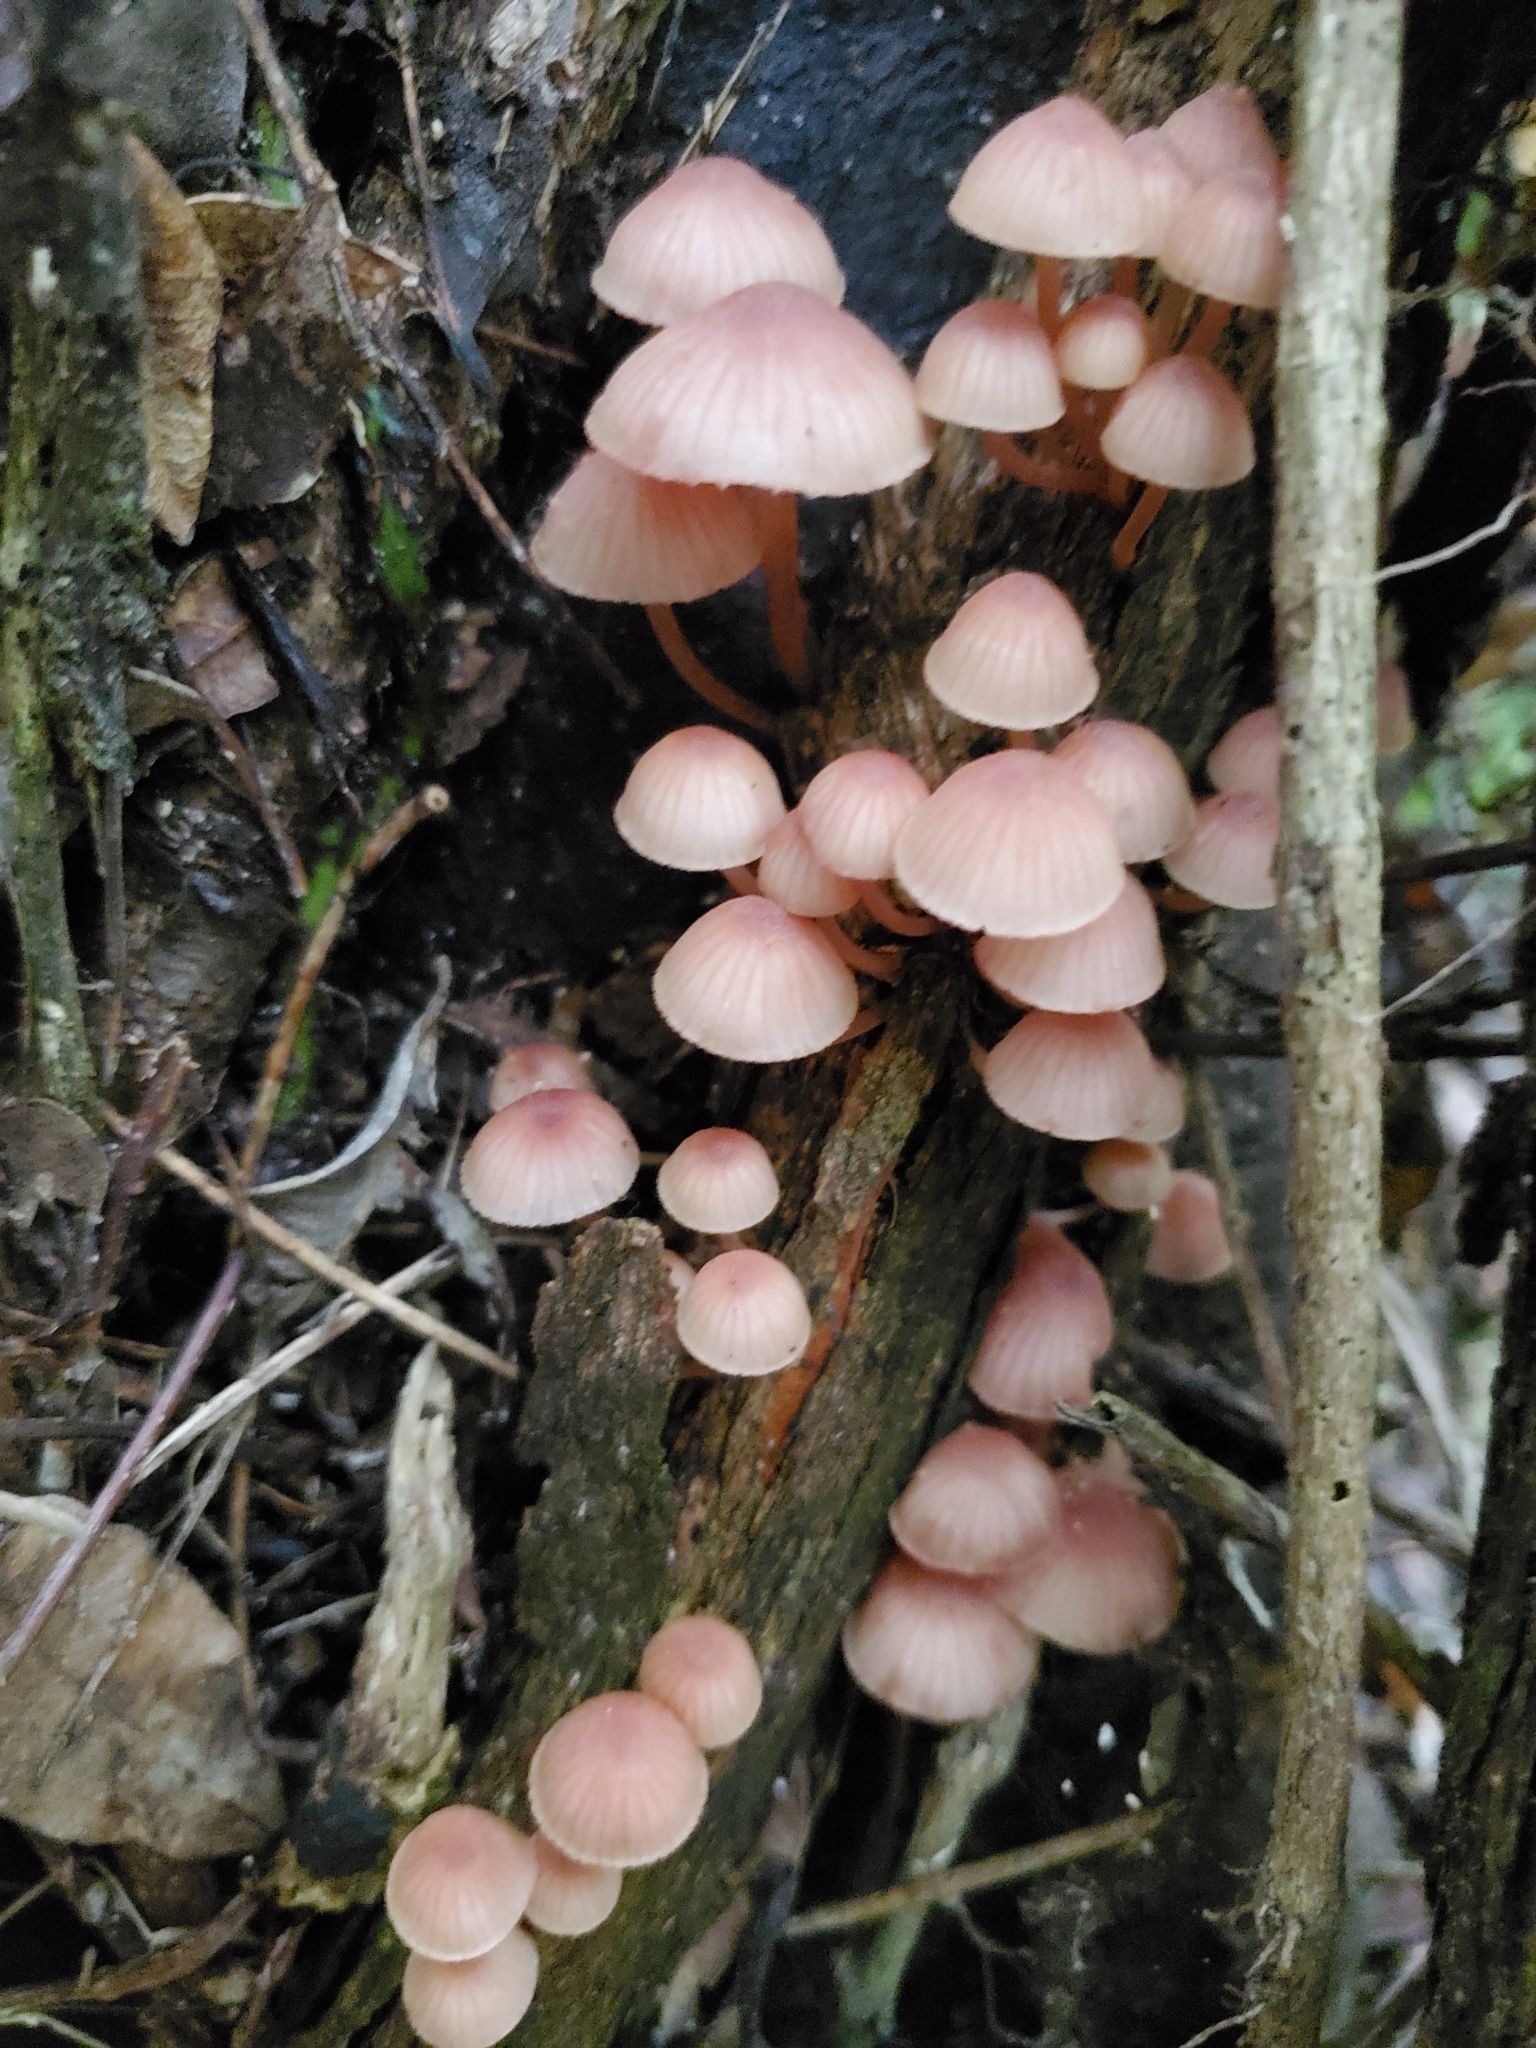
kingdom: Fungi
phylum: Basidiomycota
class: Agaricomycetes
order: Agaricales
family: Mycenaceae
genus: Mycena
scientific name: Mycena parsonsii
